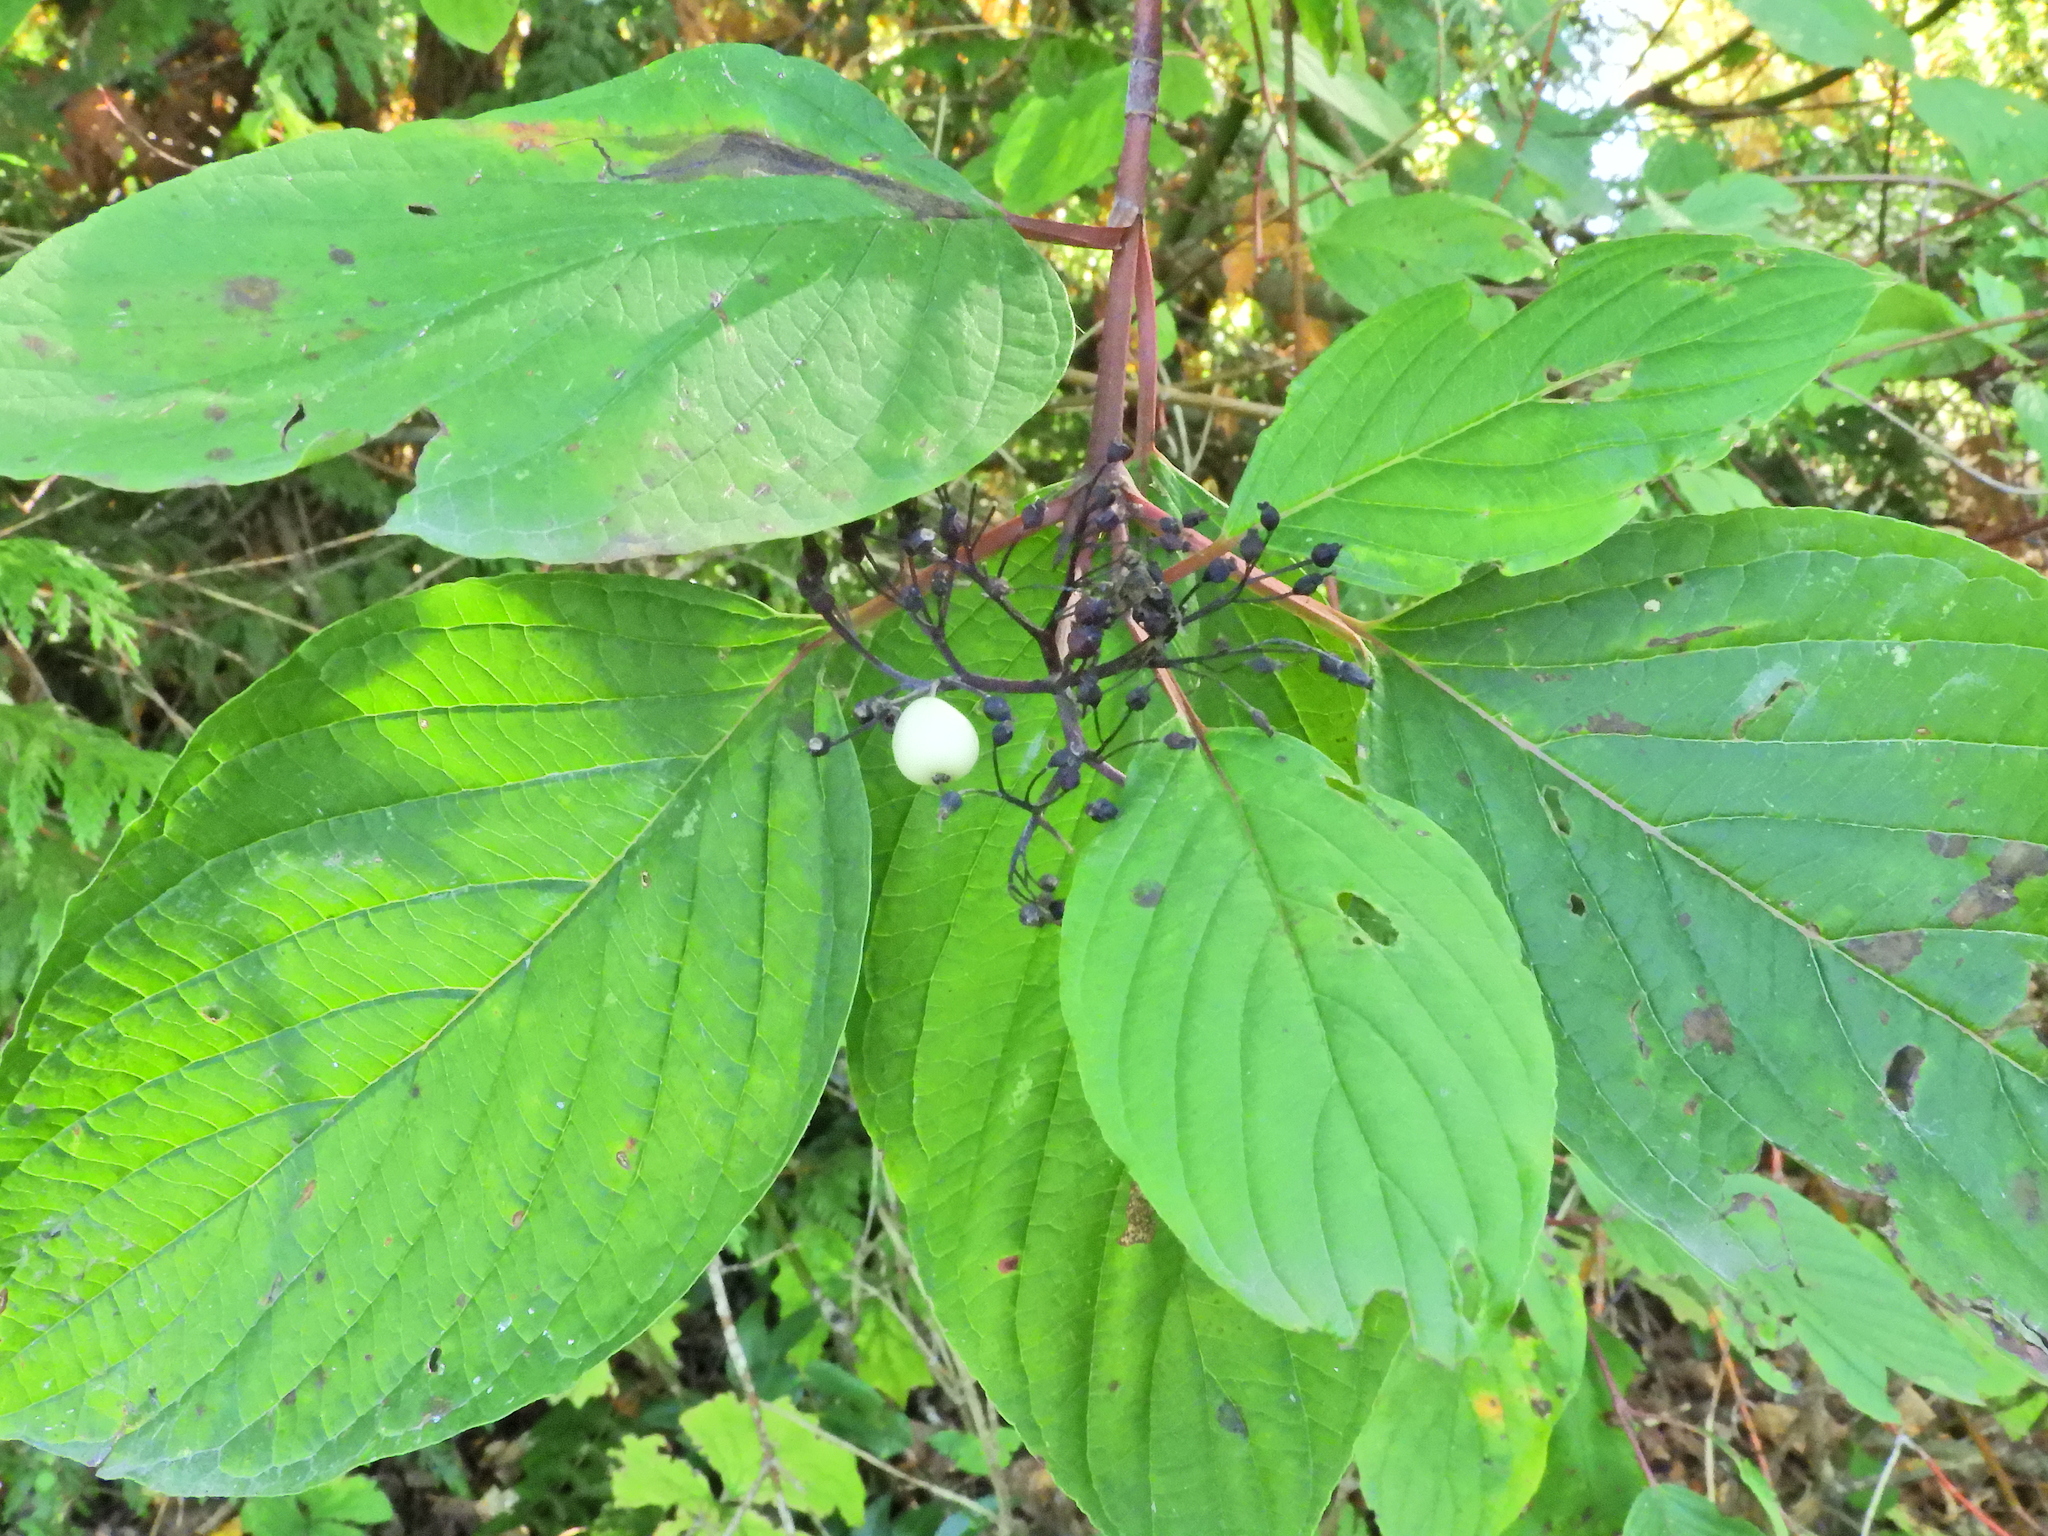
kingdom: Plantae
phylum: Tracheophyta
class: Magnoliopsida
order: Cornales
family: Cornaceae
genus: Cornus
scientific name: Cornus sericea
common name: Red-osier dogwood
